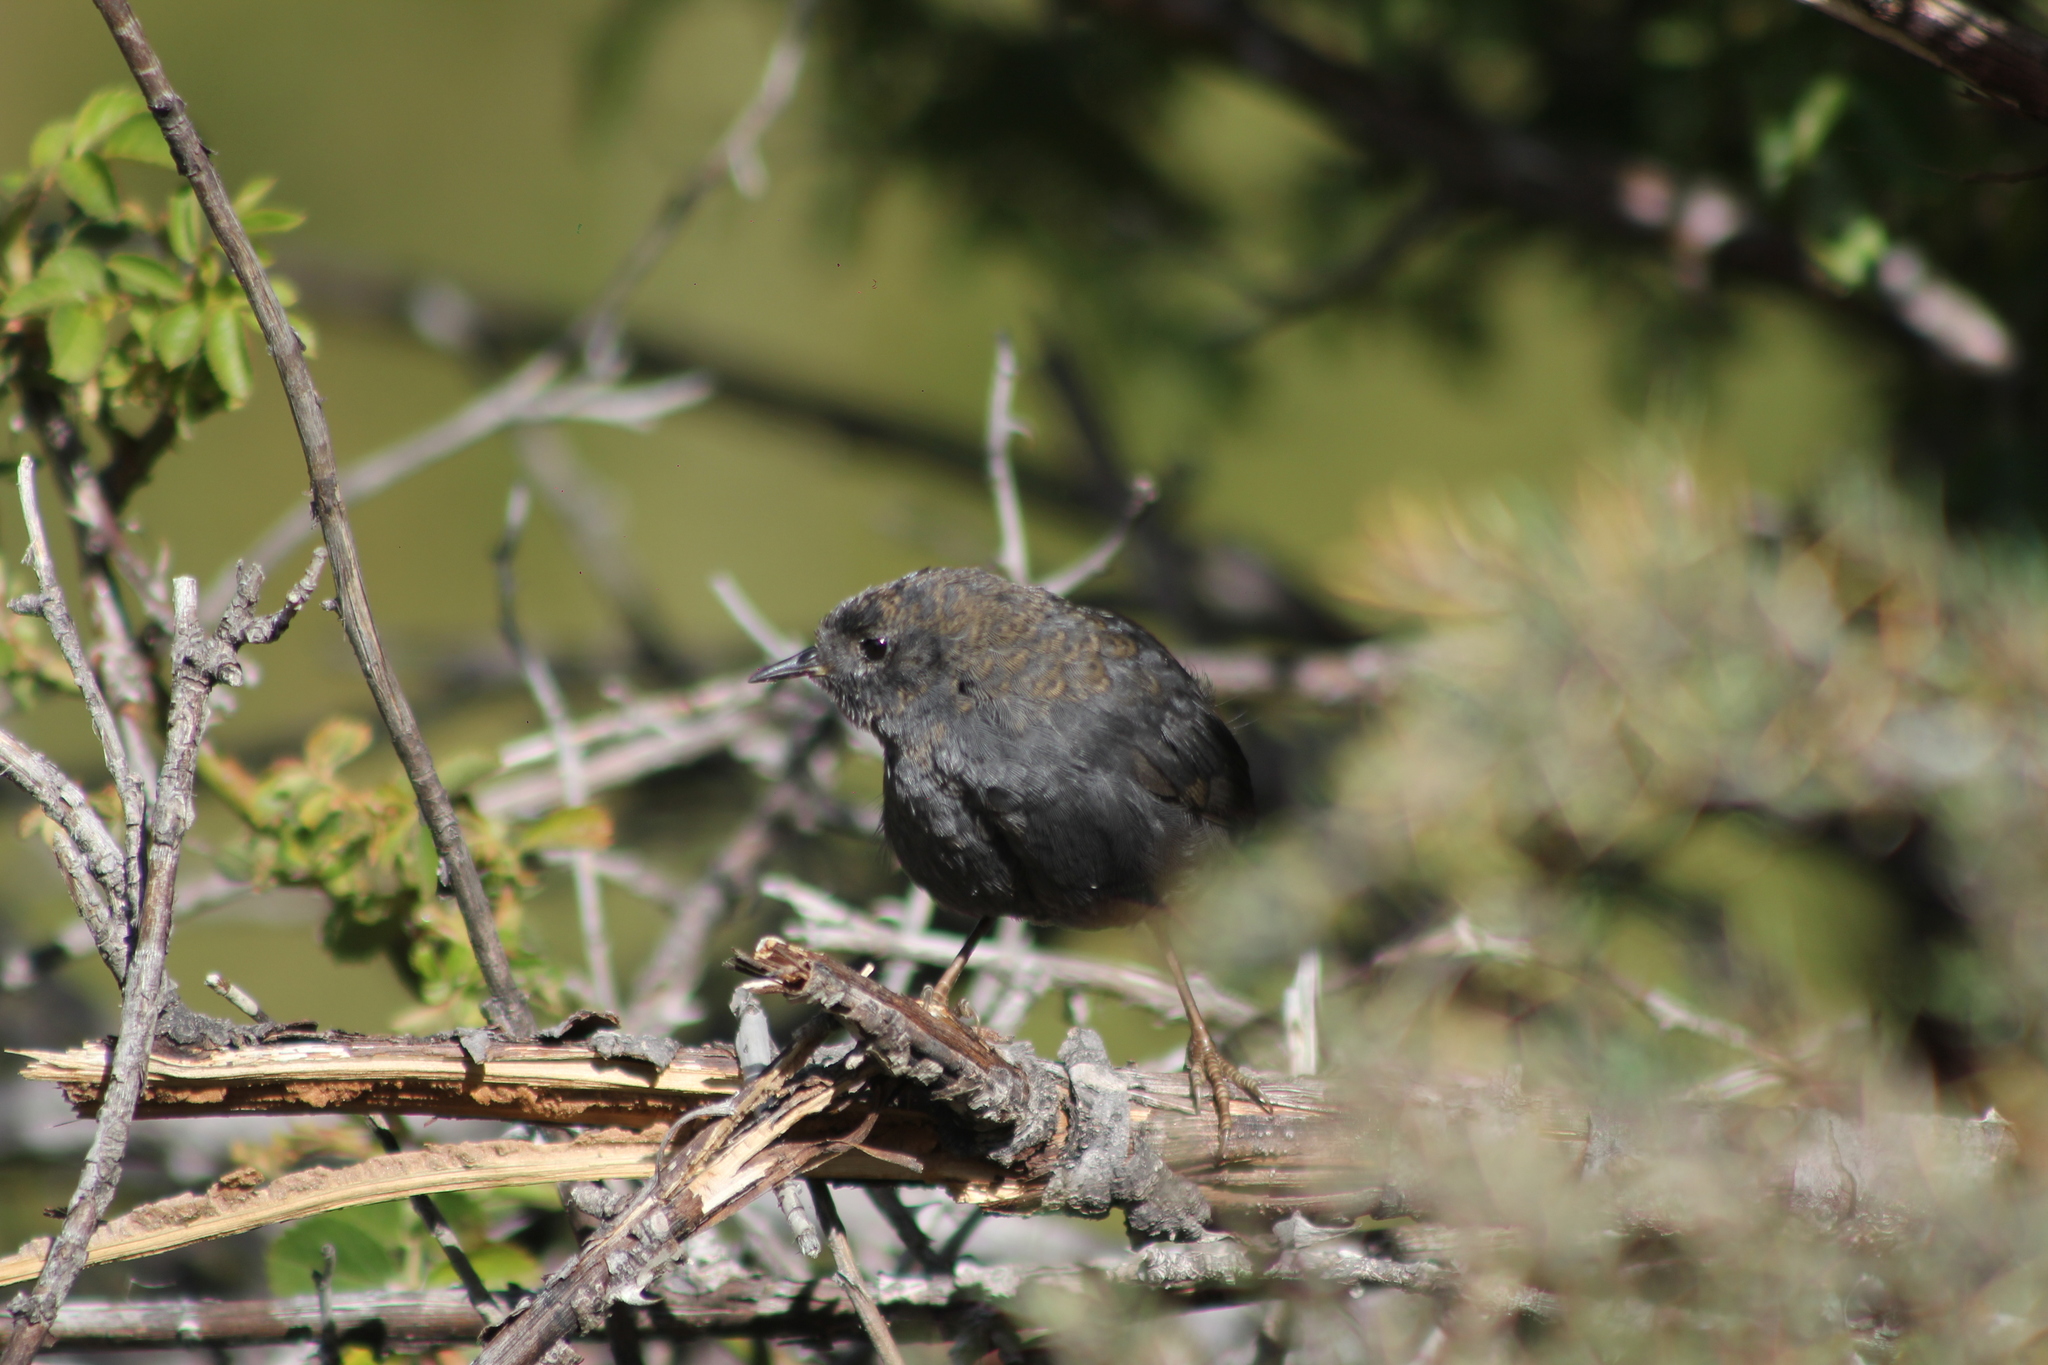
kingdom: Animalia
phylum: Chordata
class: Aves
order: Passeriformes
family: Rhinocryptidae
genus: Scytalopus
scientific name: Scytalopus magellanicus
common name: Magellanic tapaculo
